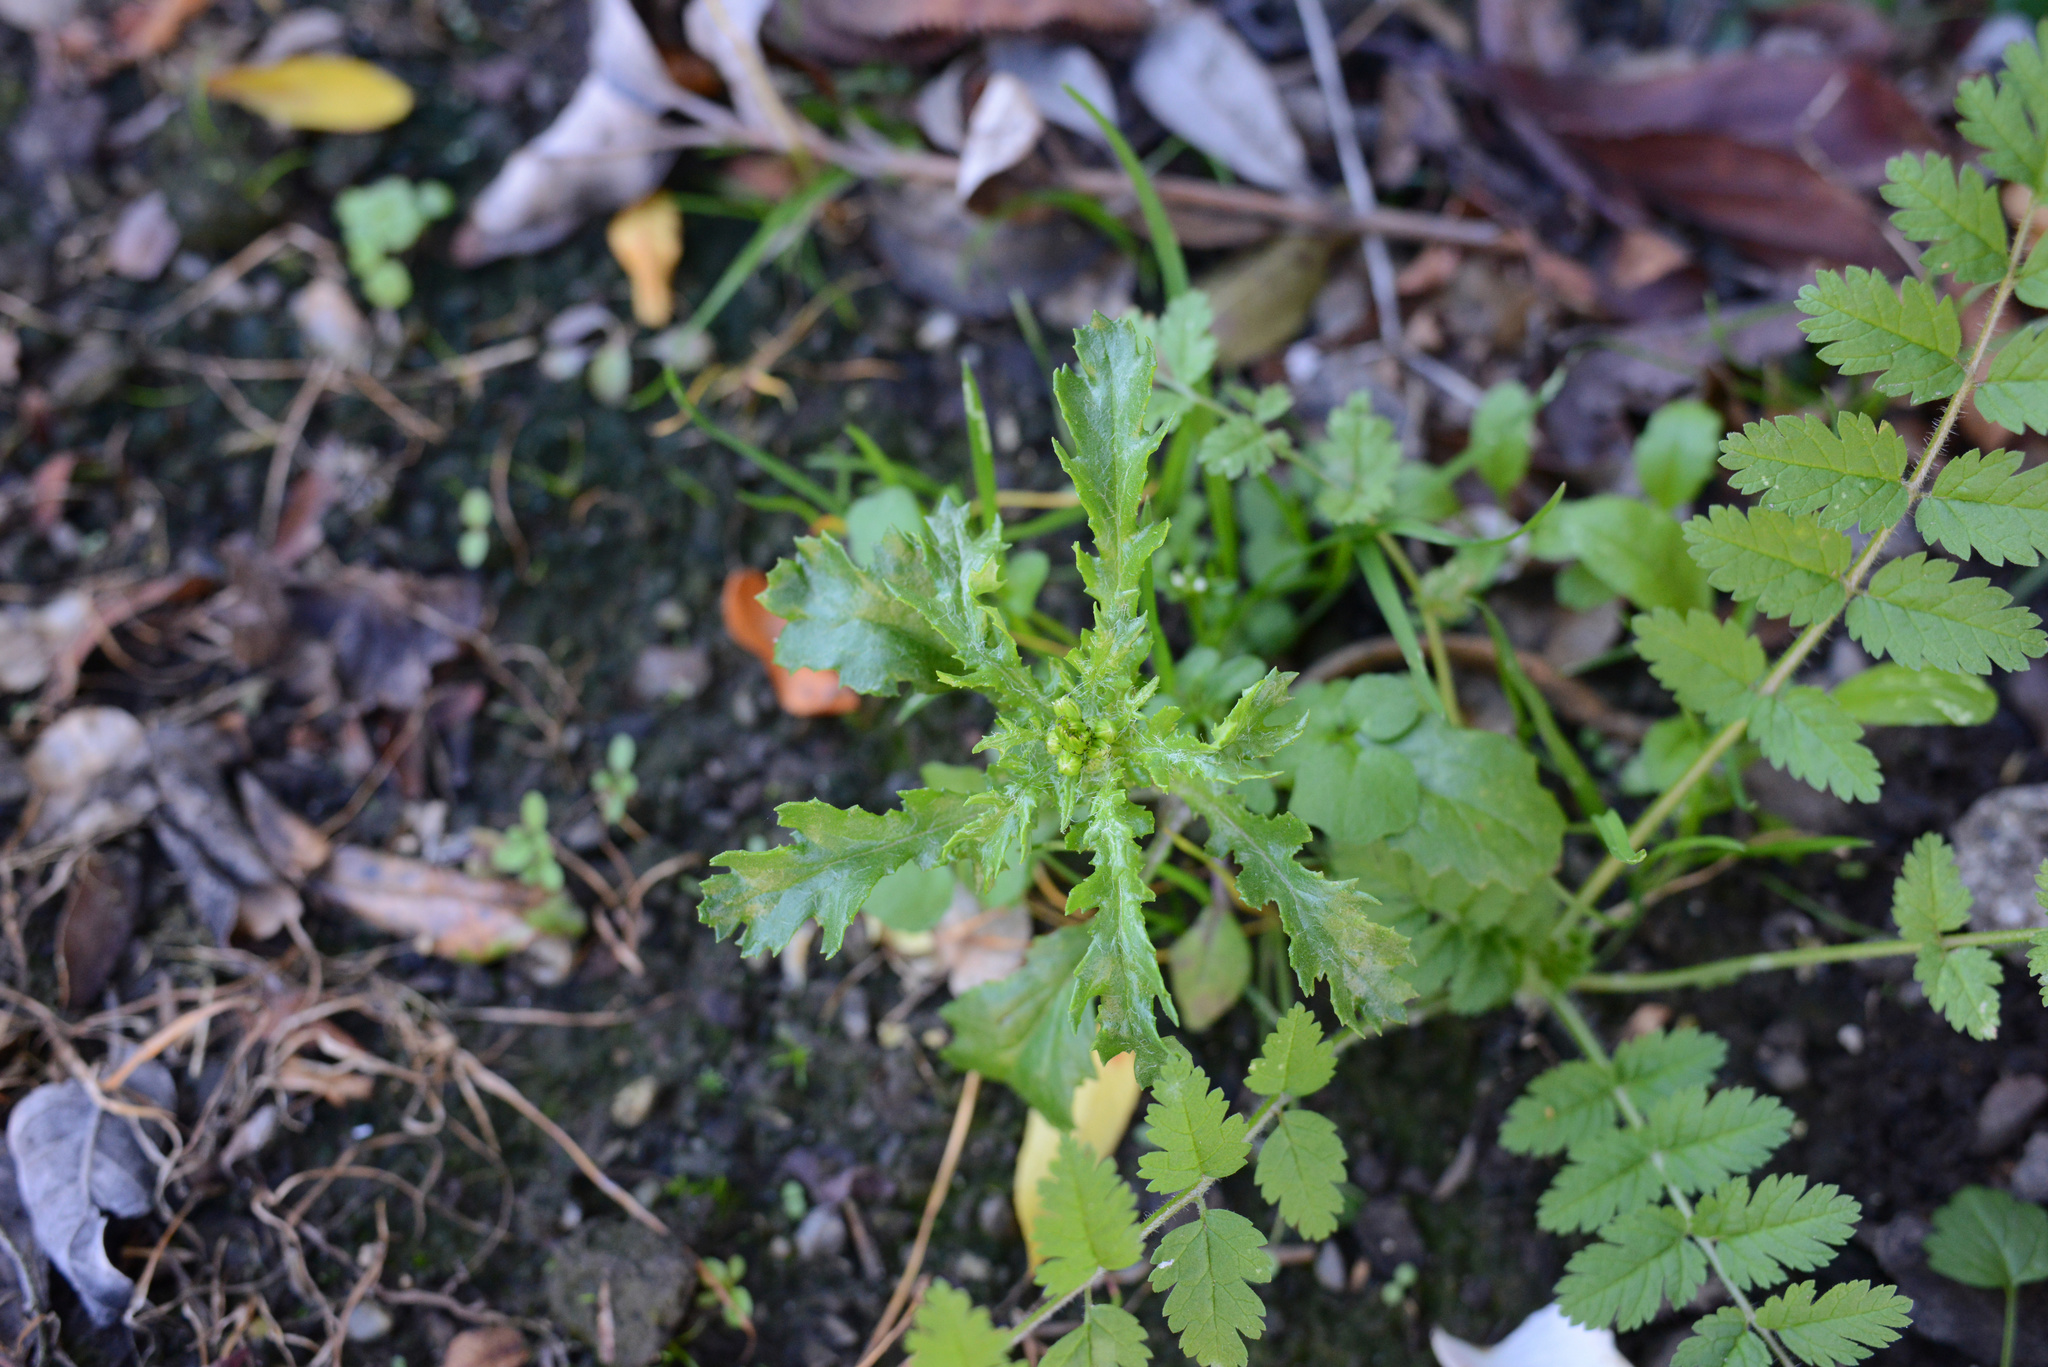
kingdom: Plantae
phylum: Tracheophyta
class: Magnoliopsida
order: Asterales
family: Asteraceae
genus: Senecio
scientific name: Senecio vulgaris
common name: Old-man-in-the-spring
